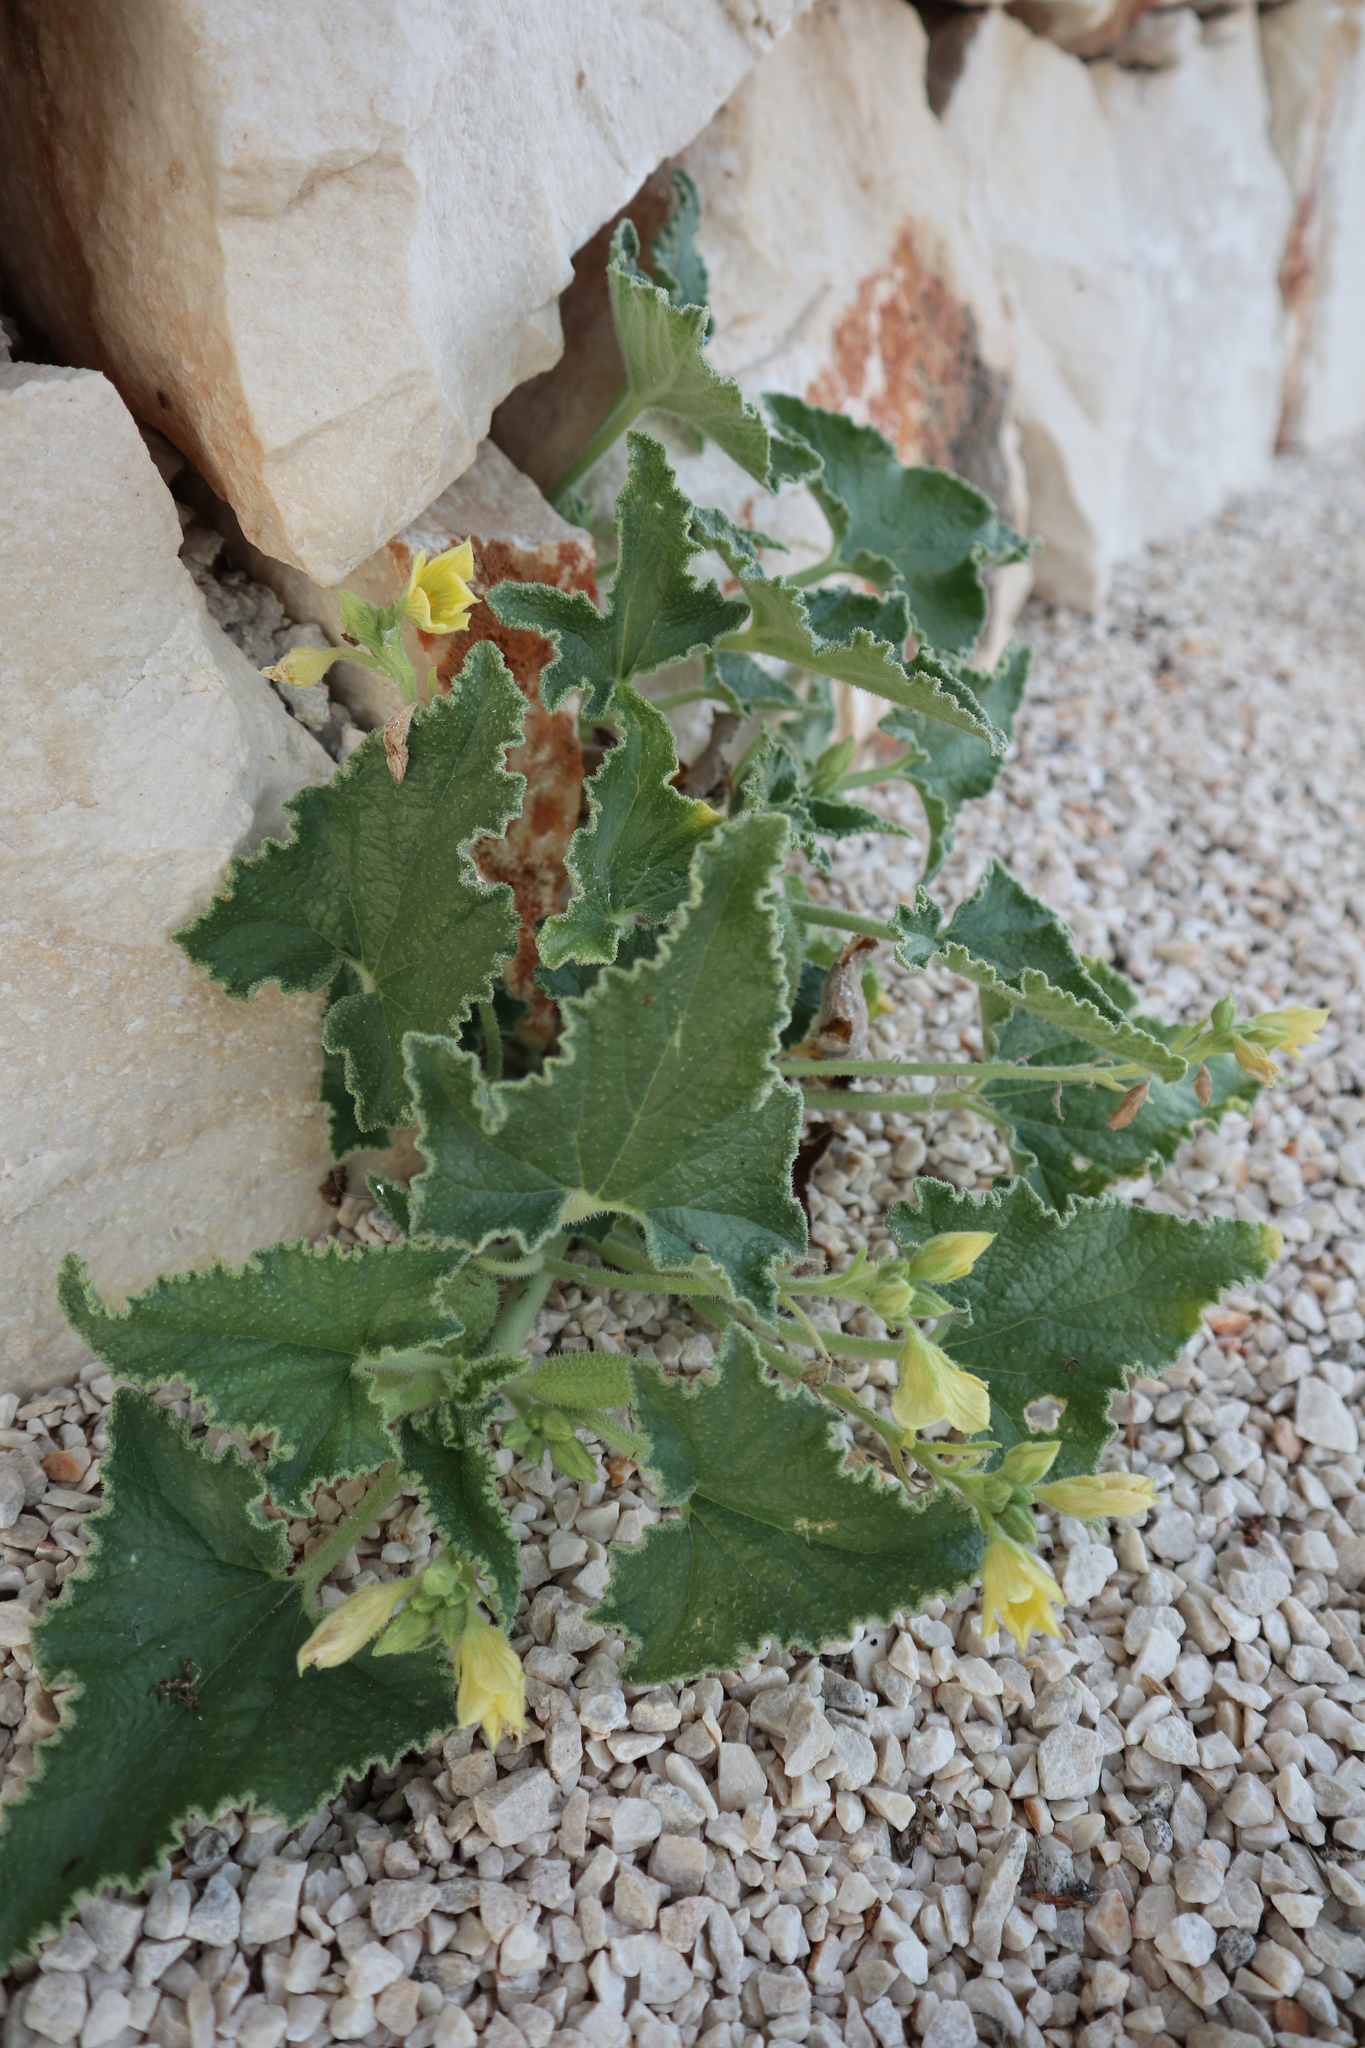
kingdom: Plantae
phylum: Tracheophyta
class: Magnoliopsida
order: Cucurbitales
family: Cucurbitaceae
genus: Ecballium
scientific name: Ecballium elaterium
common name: Squirting cucumber
